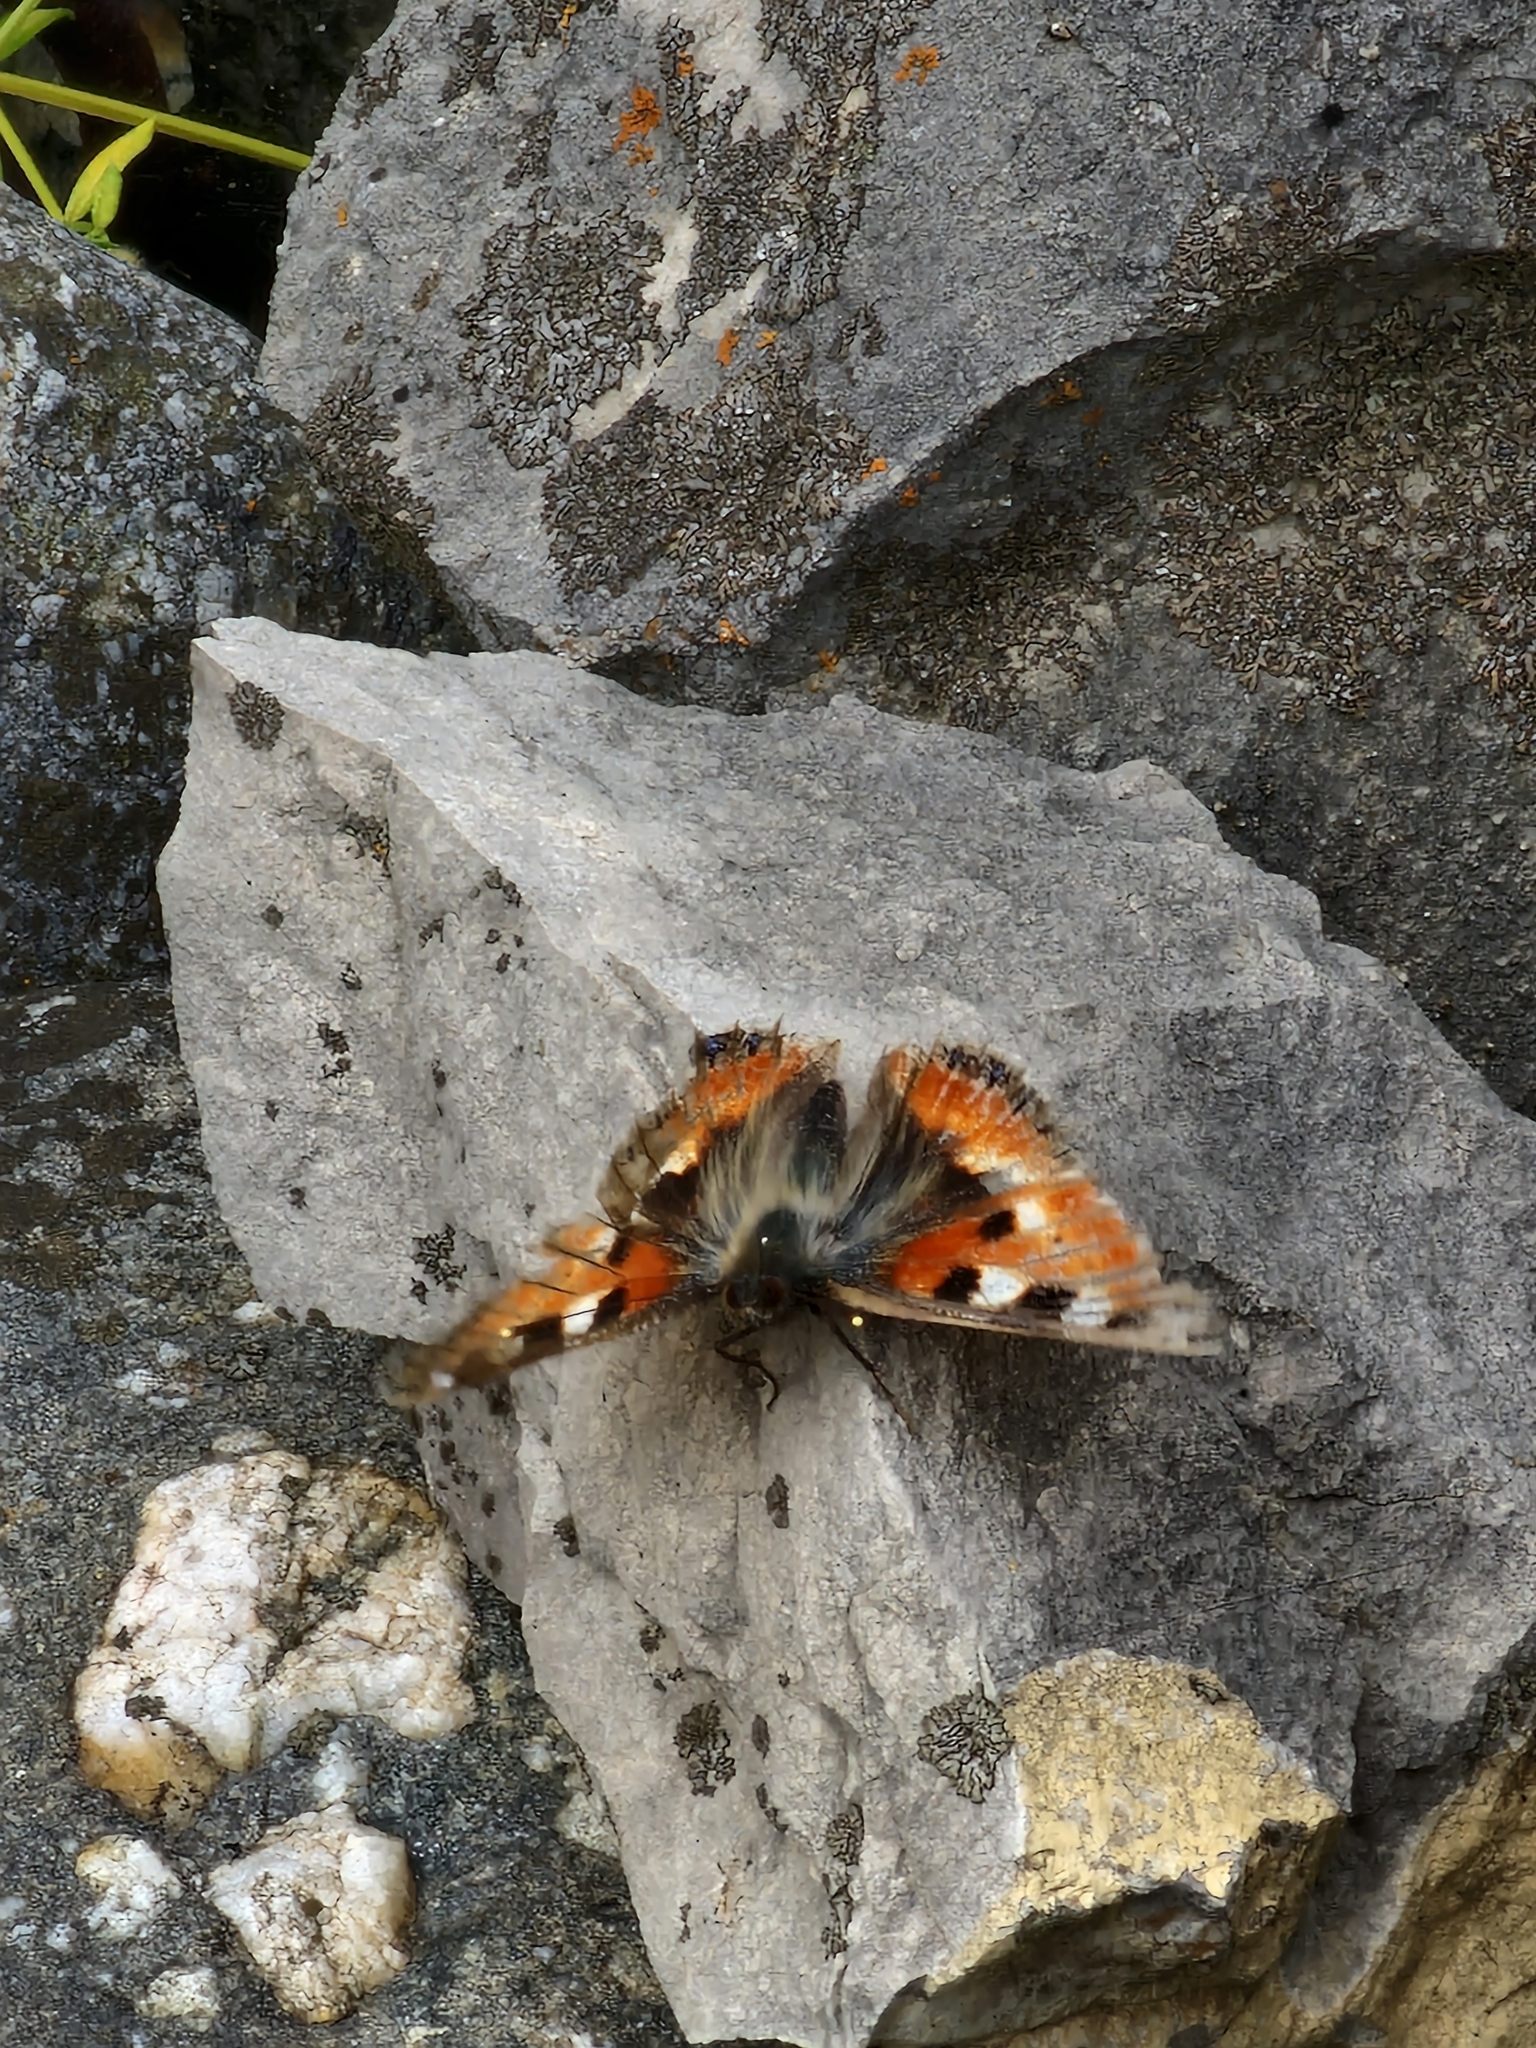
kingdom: Animalia
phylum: Arthropoda
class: Insecta
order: Lepidoptera
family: Nymphalidae
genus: Aglais
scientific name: Aglais urticae
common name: Small tortoiseshell
